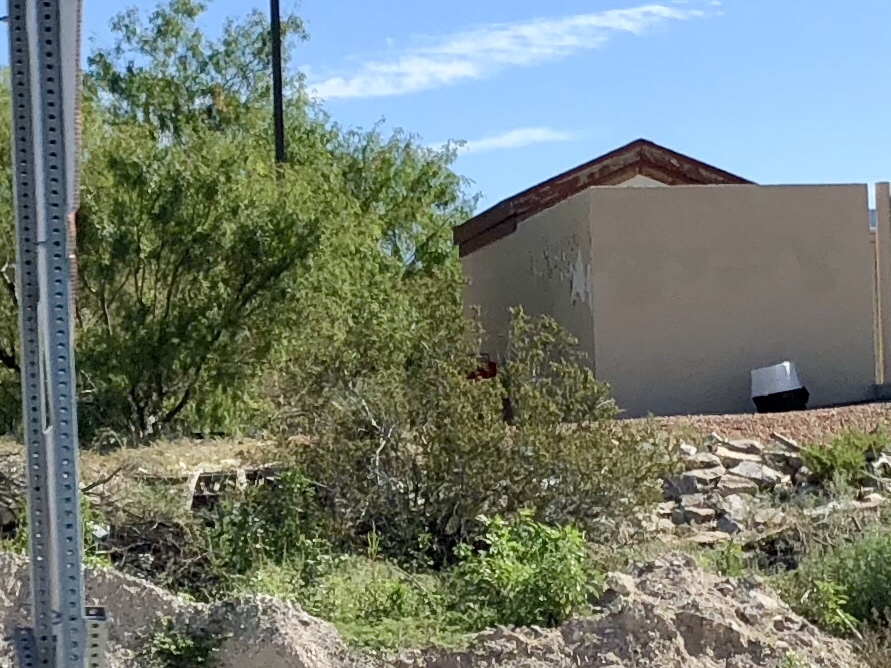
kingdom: Plantae
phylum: Tracheophyta
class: Magnoliopsida
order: Zygophyllales
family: Zygophyllaceae
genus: Larrea
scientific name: Larrea tridentata
